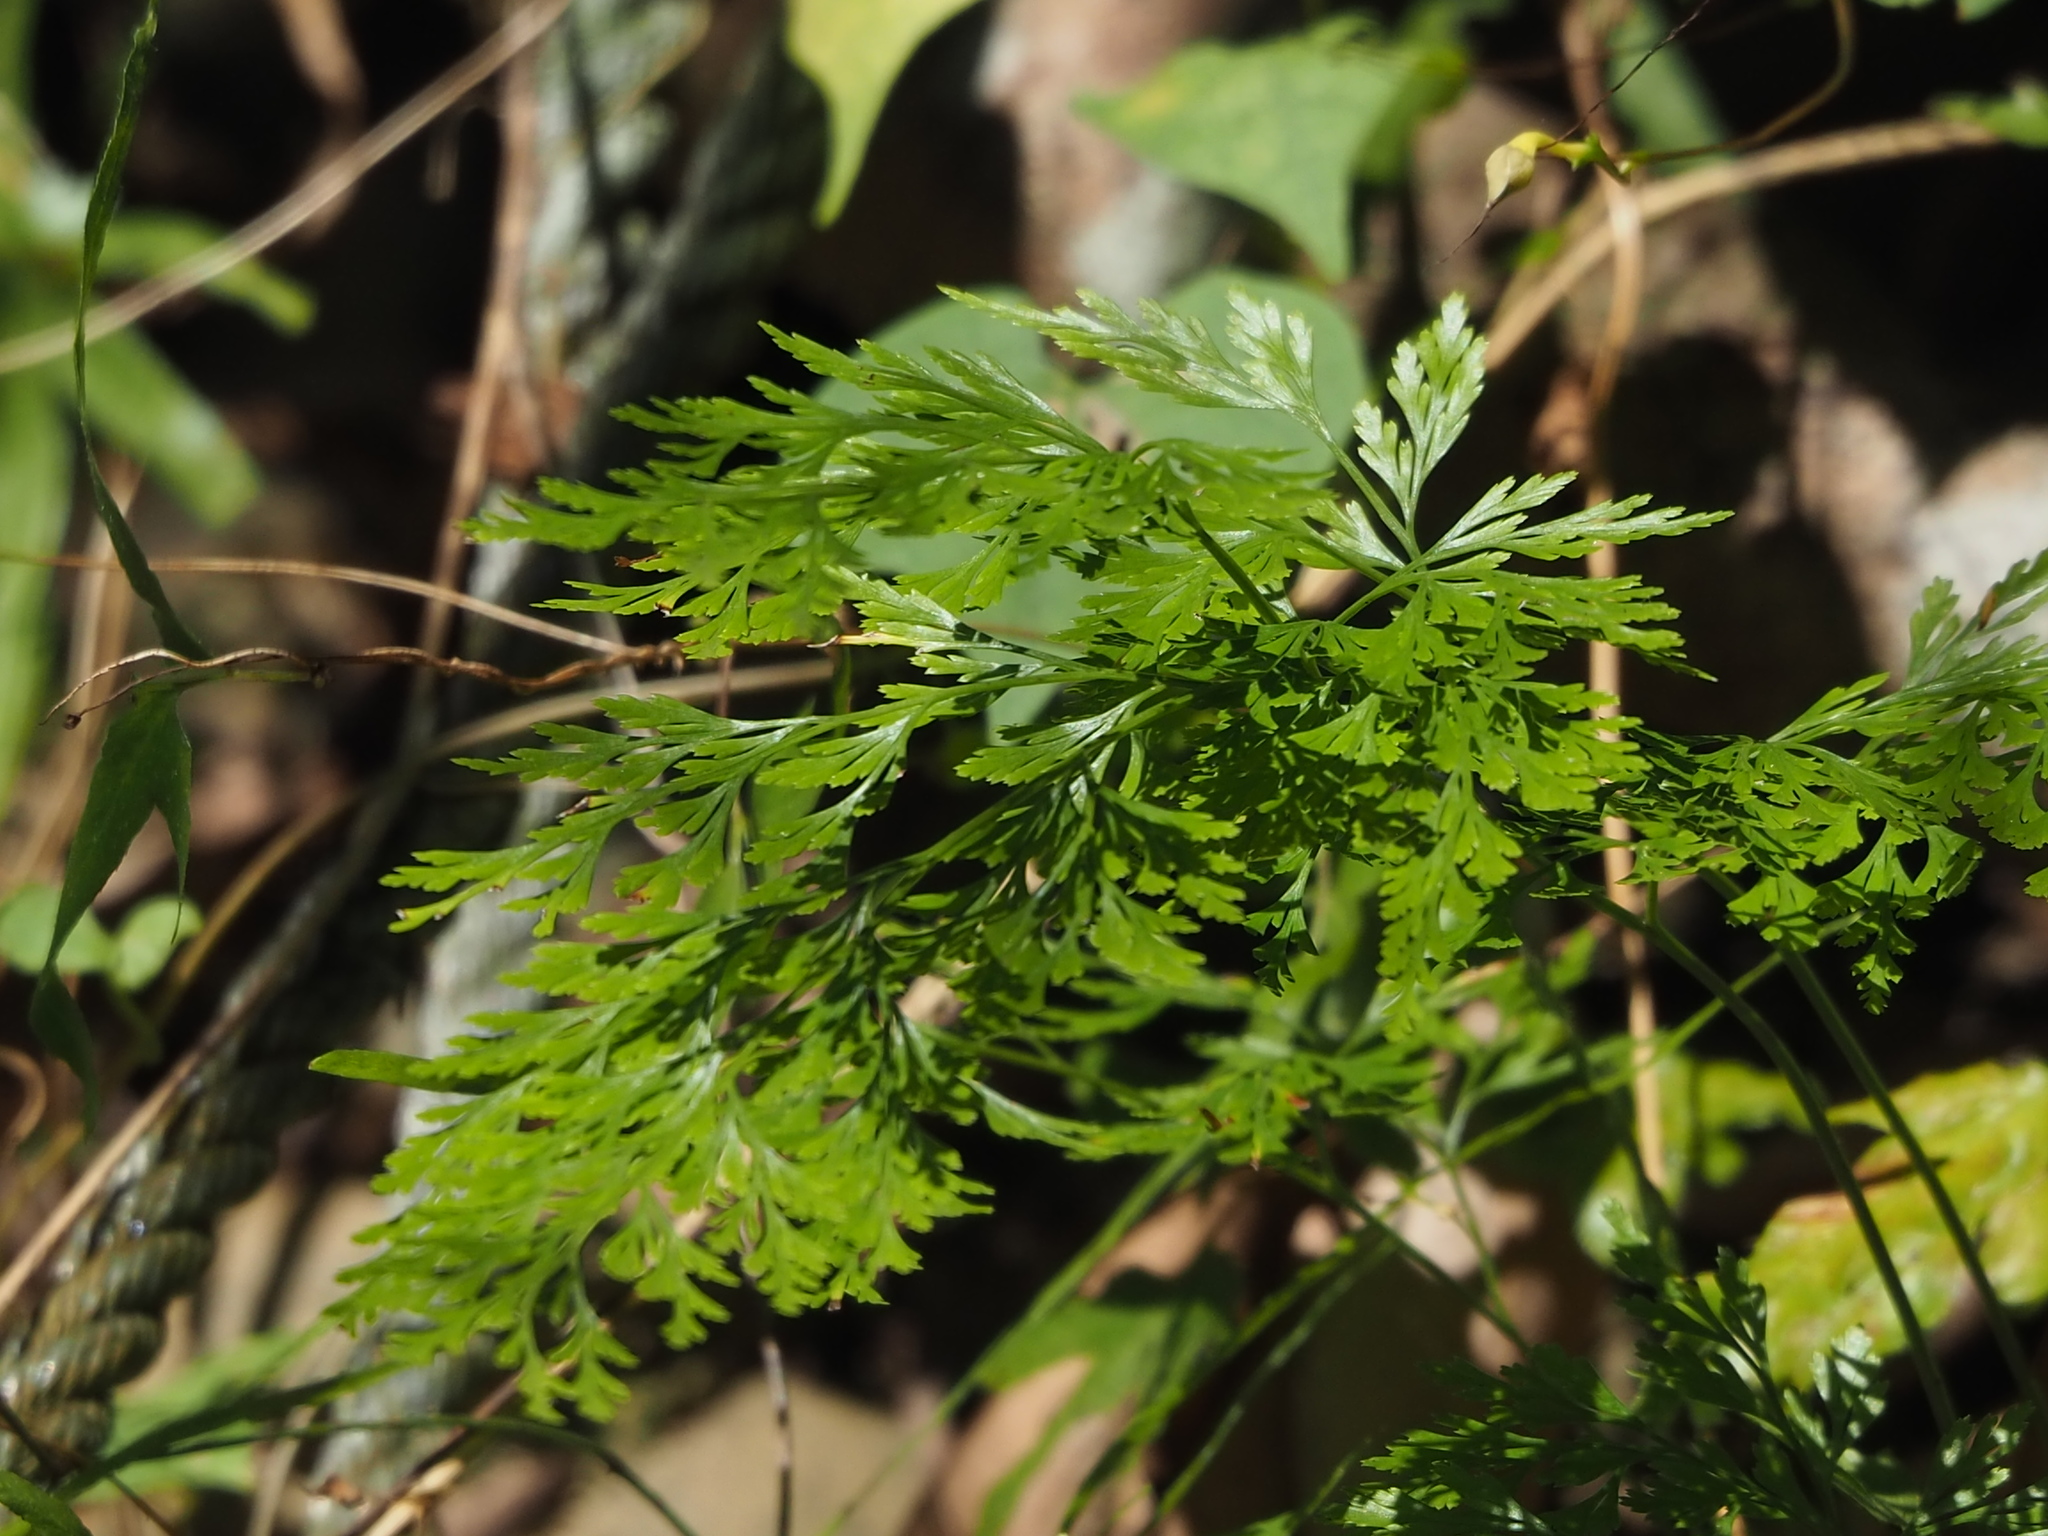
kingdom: Plantae
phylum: Tracheophyta
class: Polypodiopsida
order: Polypodiales
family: Pteridaceae
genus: Onychium
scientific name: Onychium japonicum
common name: Carrot fern
